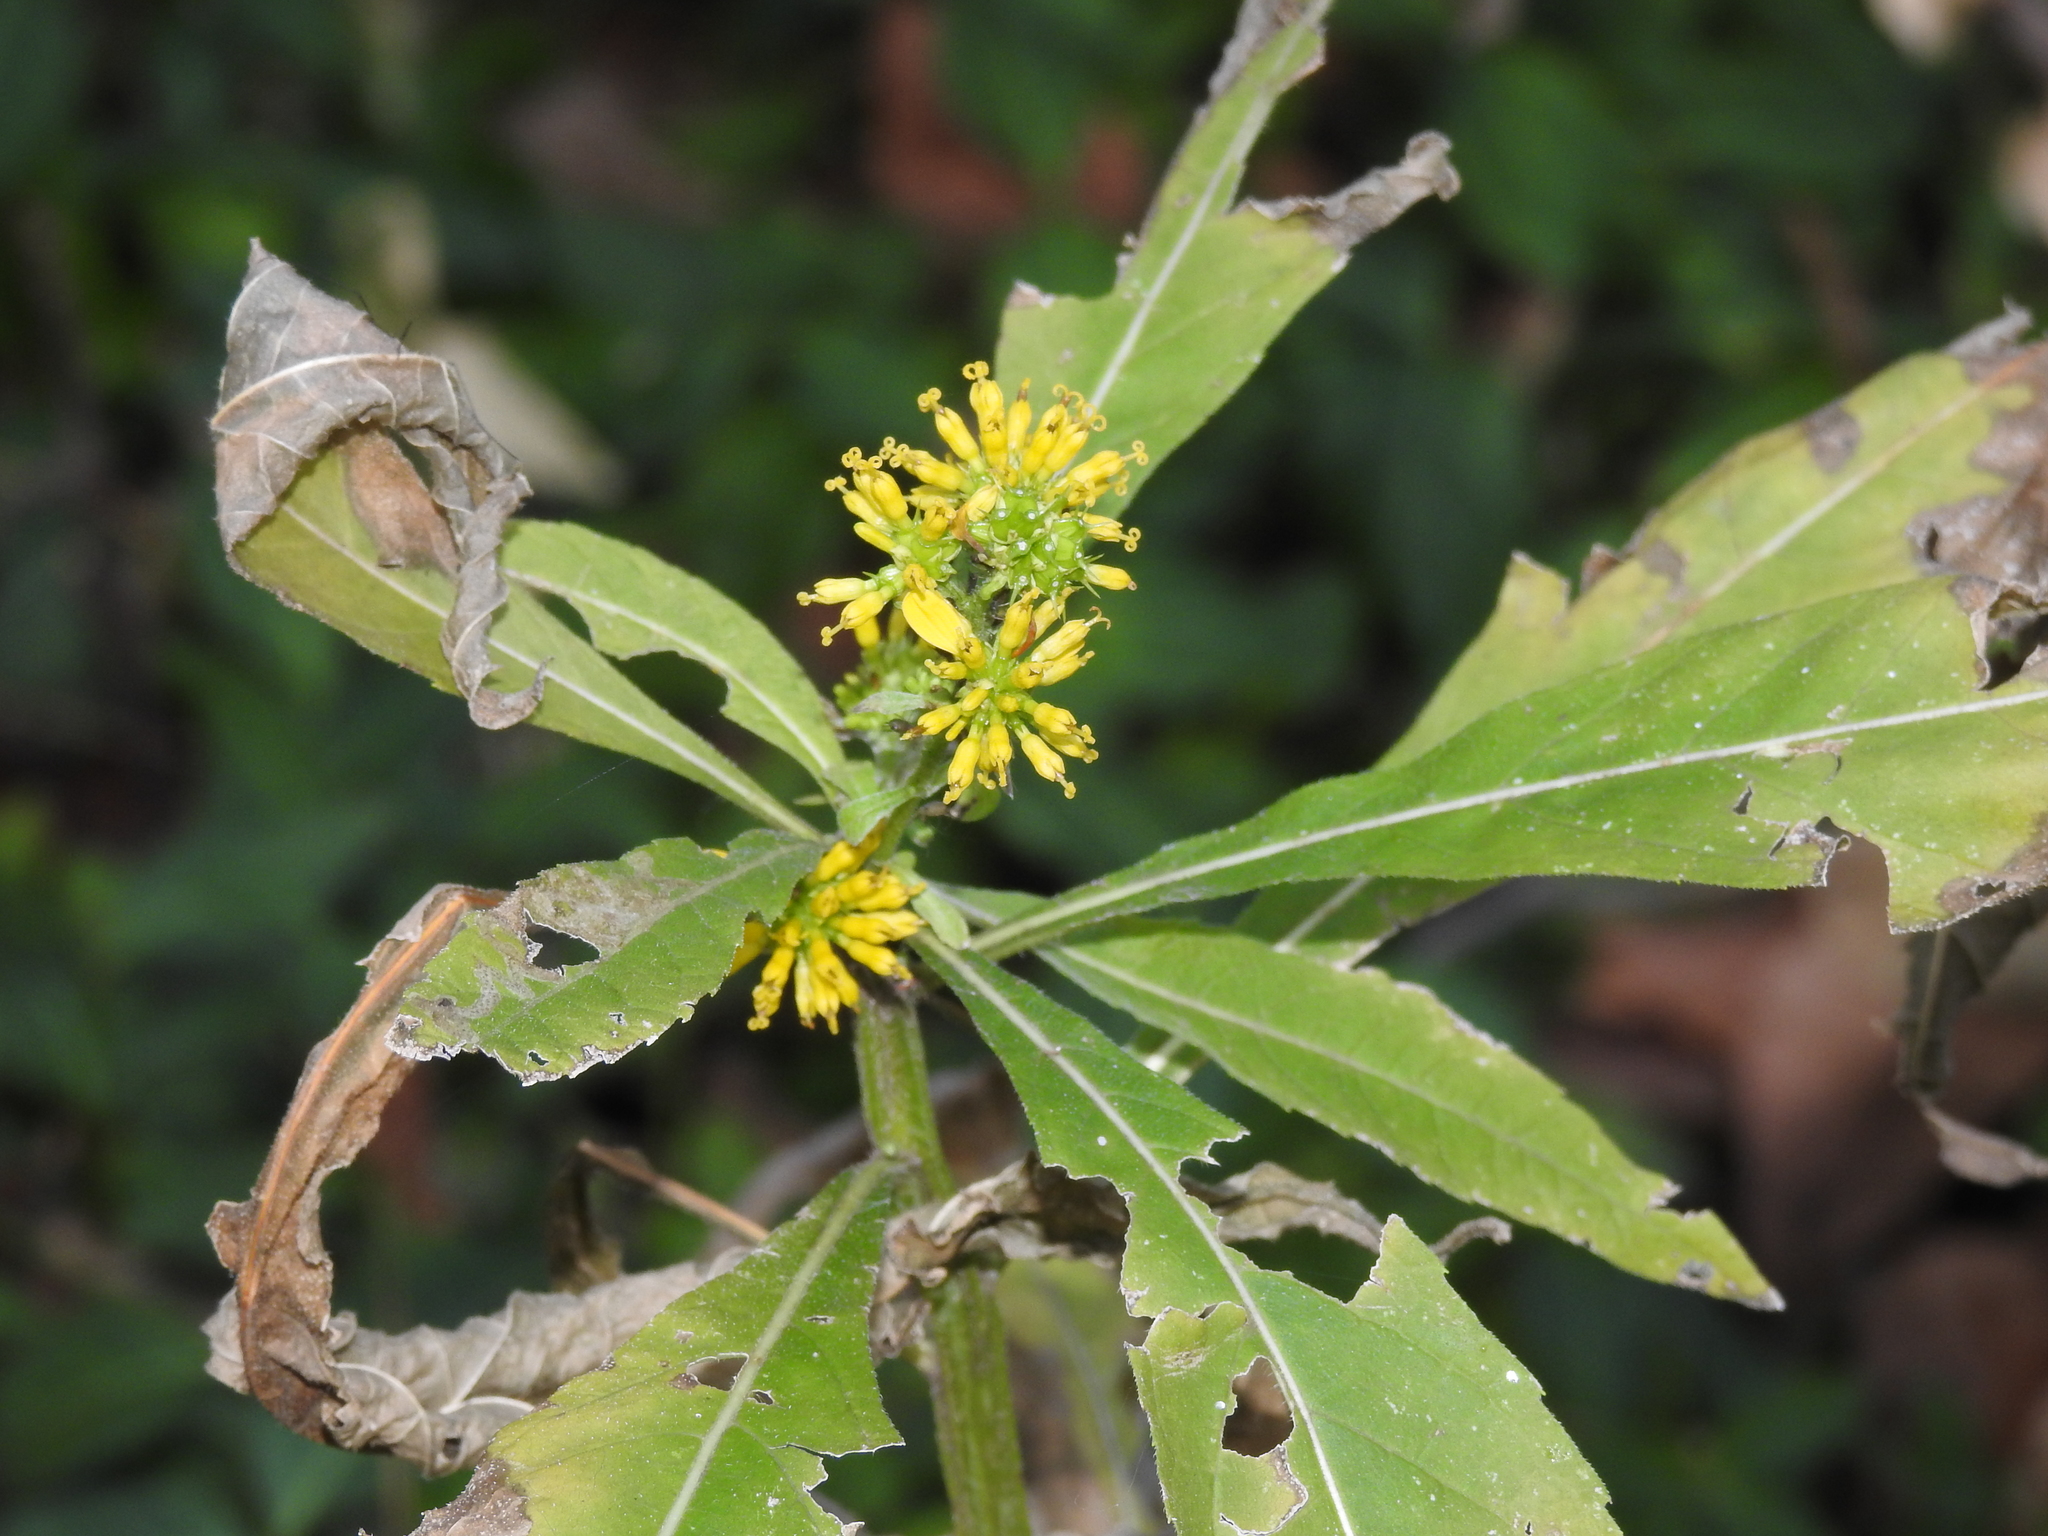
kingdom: Plantae
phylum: Tracheophyta
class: Magnoliopsida
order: Asterales
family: Asteraceae
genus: Verbesina
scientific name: Verbesina alternifolia
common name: Wingstem
